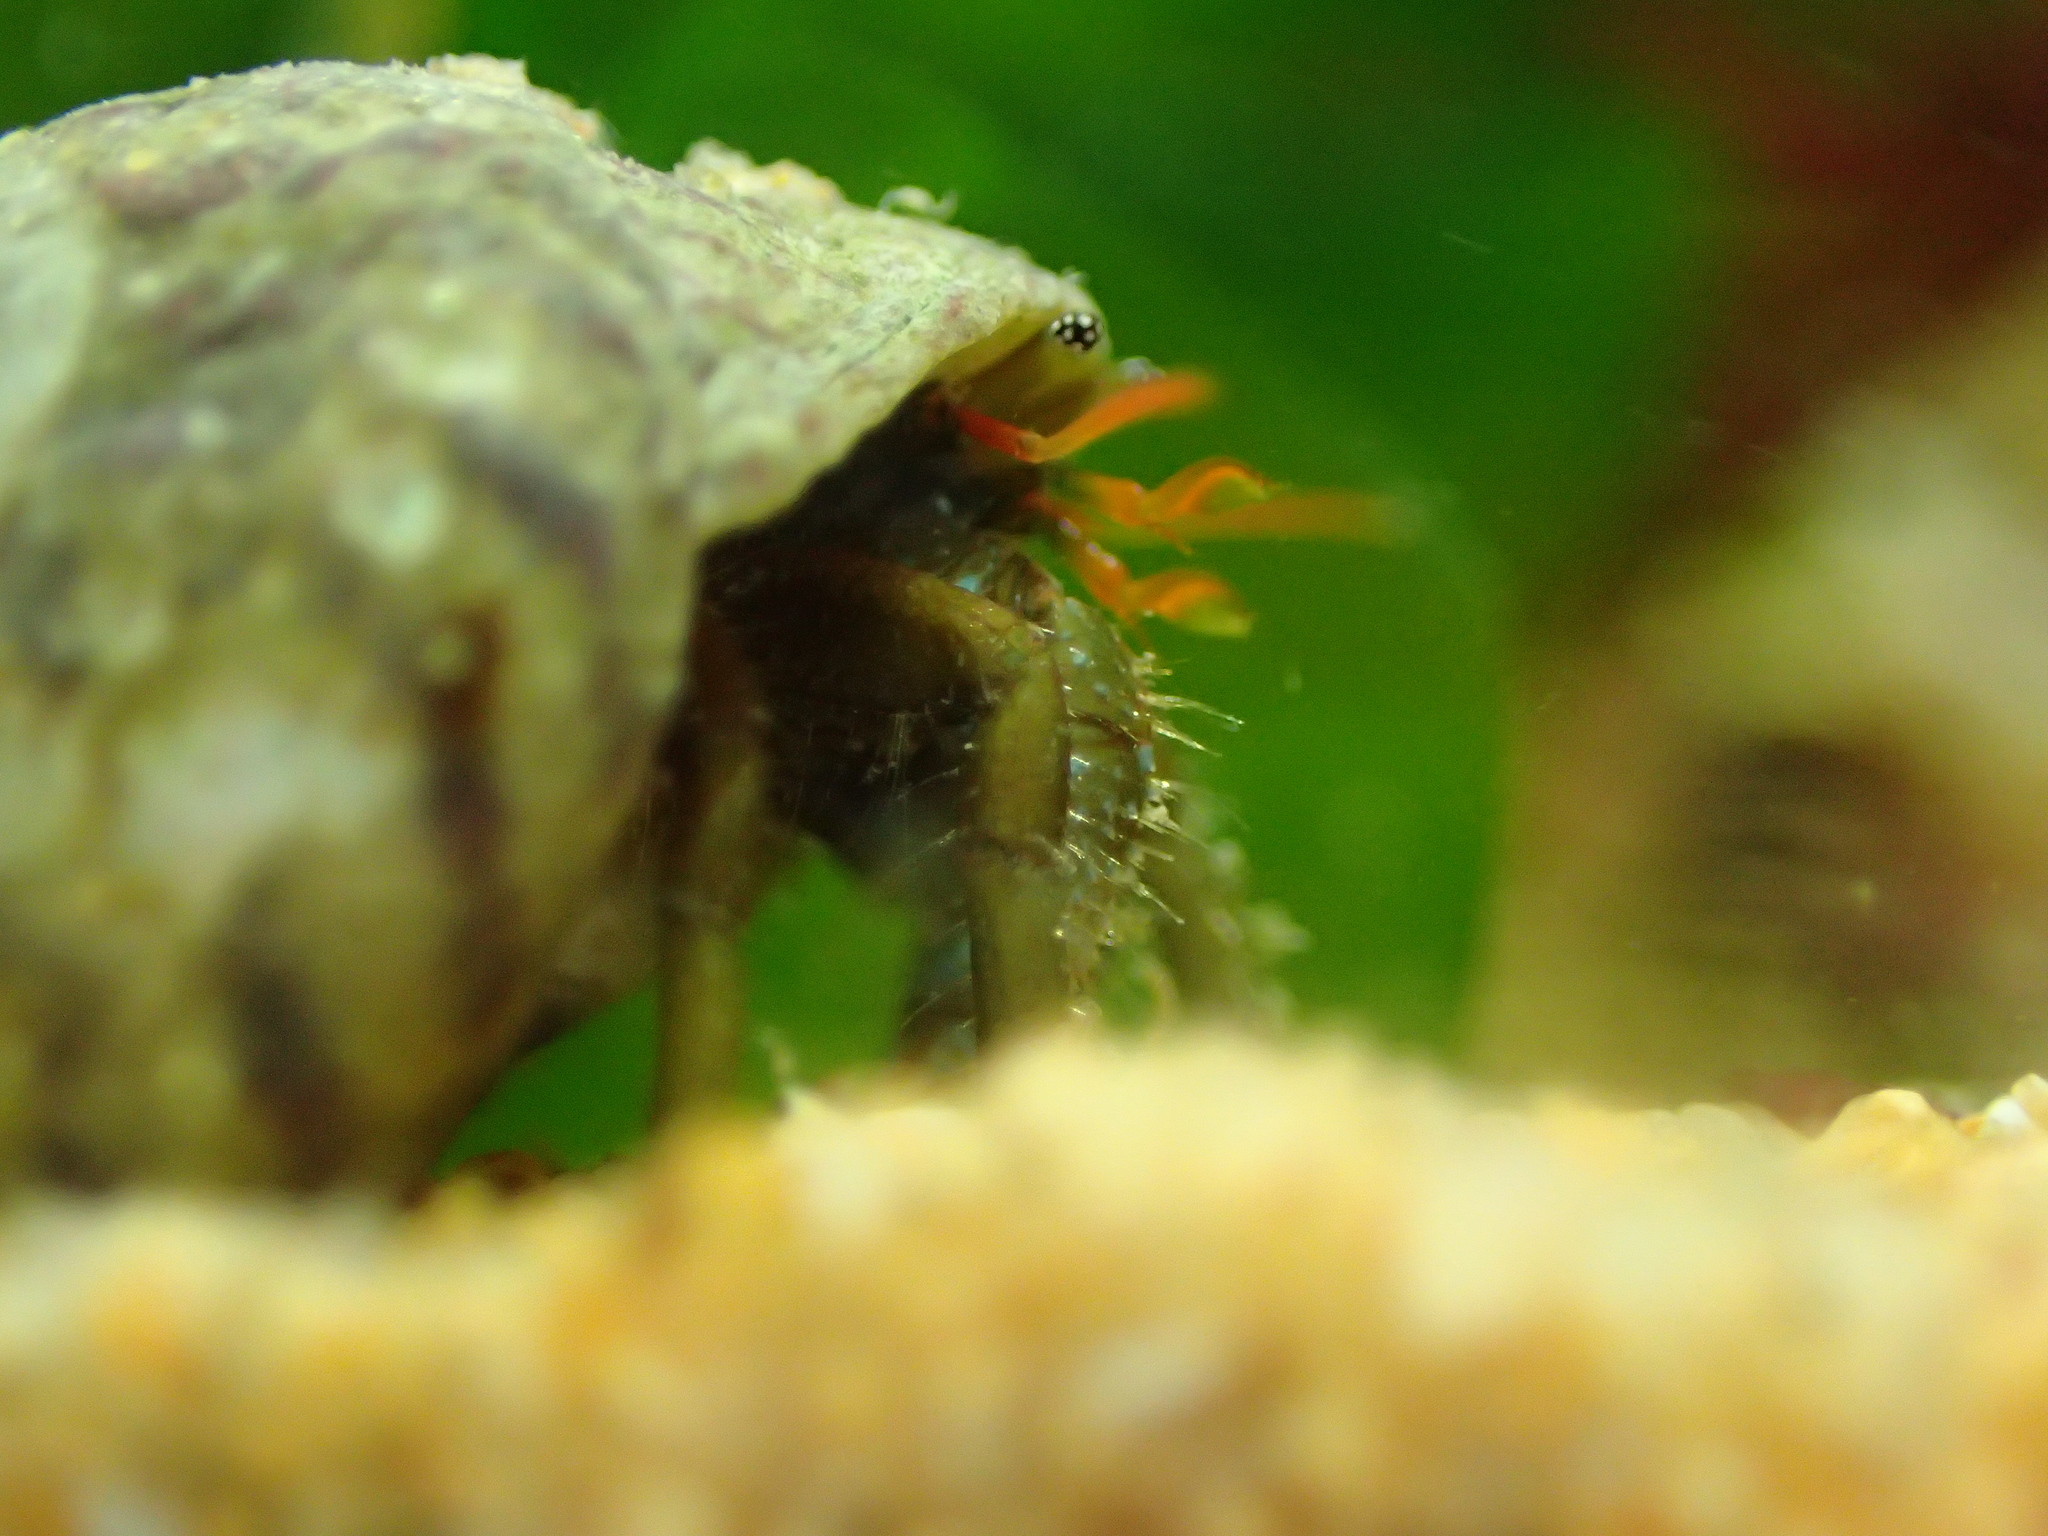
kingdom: Animalia
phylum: Arthropoda
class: Malacostraca
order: Decapoda
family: Diogenidae
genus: Clibanarius
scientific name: Clibanarius erythropus
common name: Hermit crab
